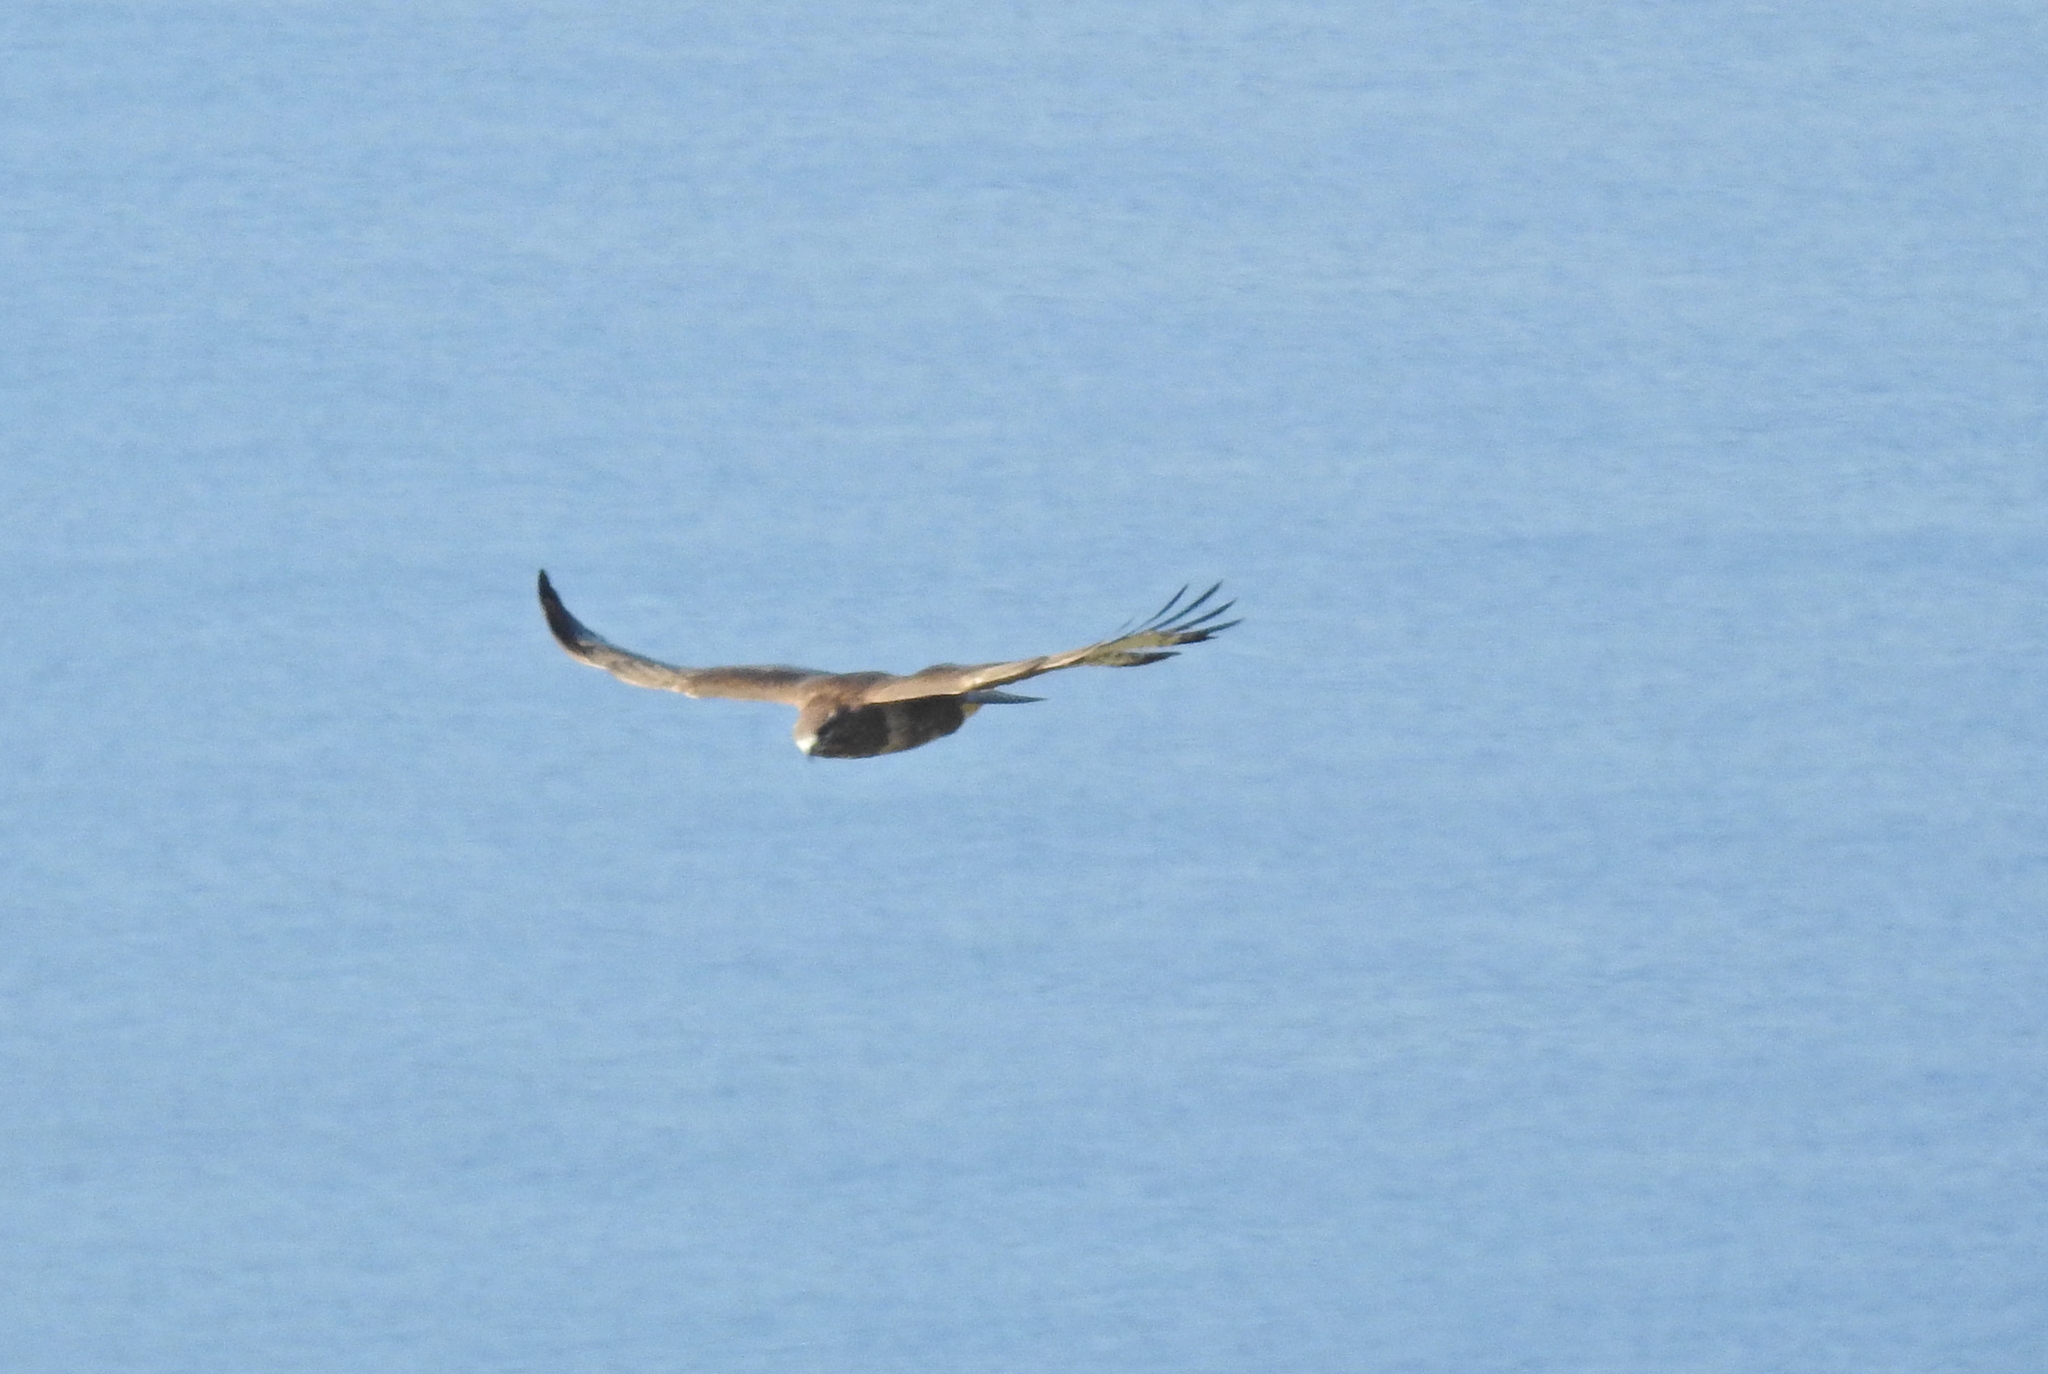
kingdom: Animalia
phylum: Chordata
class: Aves
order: Accipitriformes
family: Accipitridae
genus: Buteo
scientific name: Buteo buteo
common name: Common buzzard
